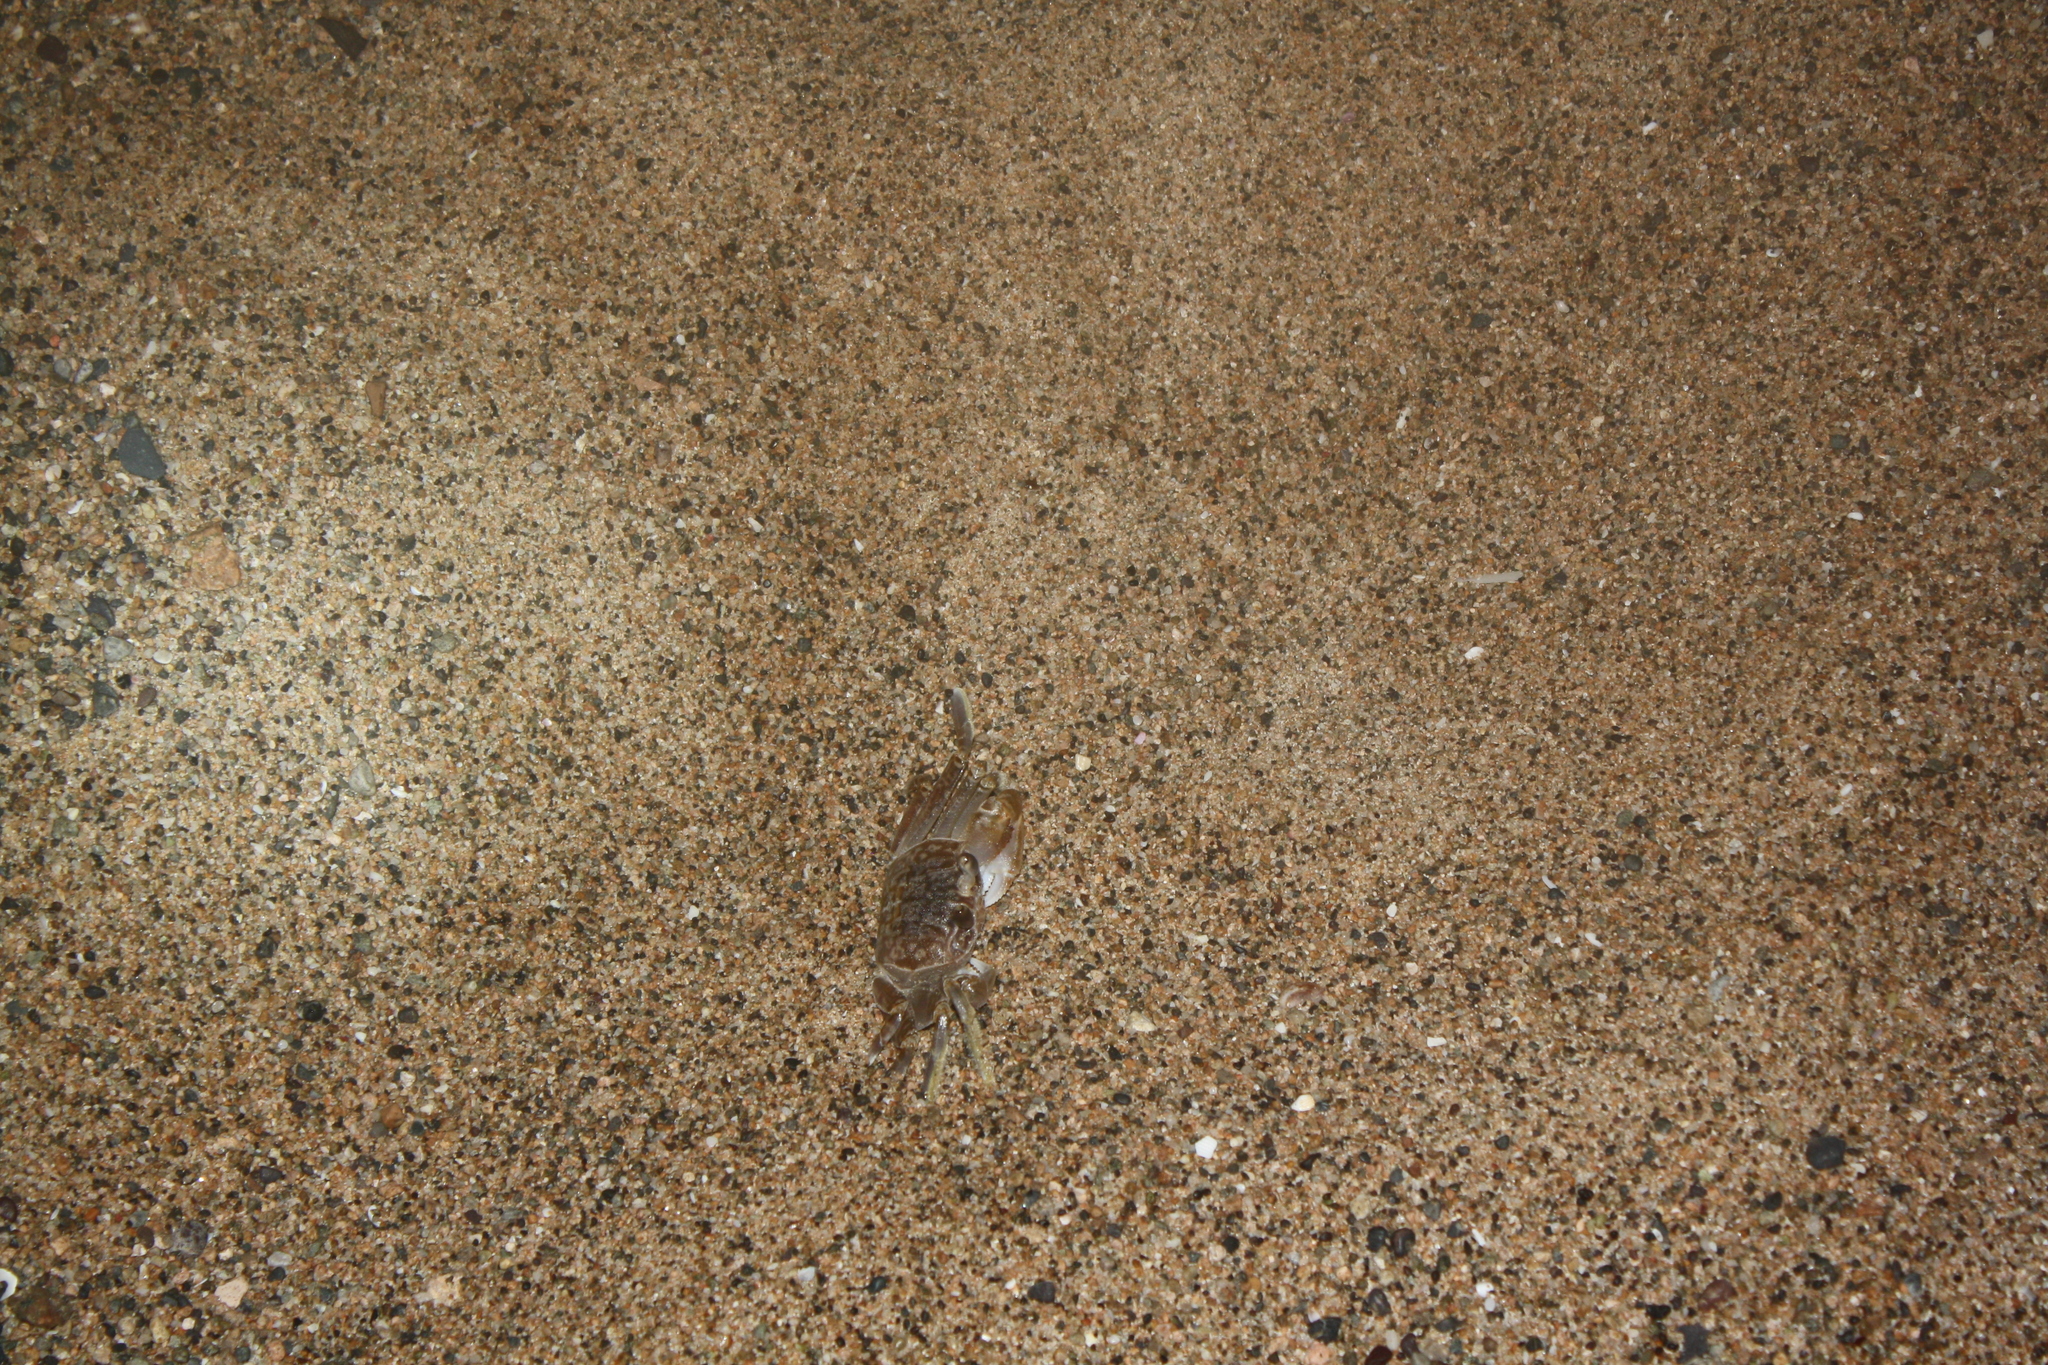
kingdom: Animalia
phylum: Arthropoda
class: Malacostraca
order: Decapoda
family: Ocypodidae
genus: Ocypode
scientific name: Ocypode occidentalis
